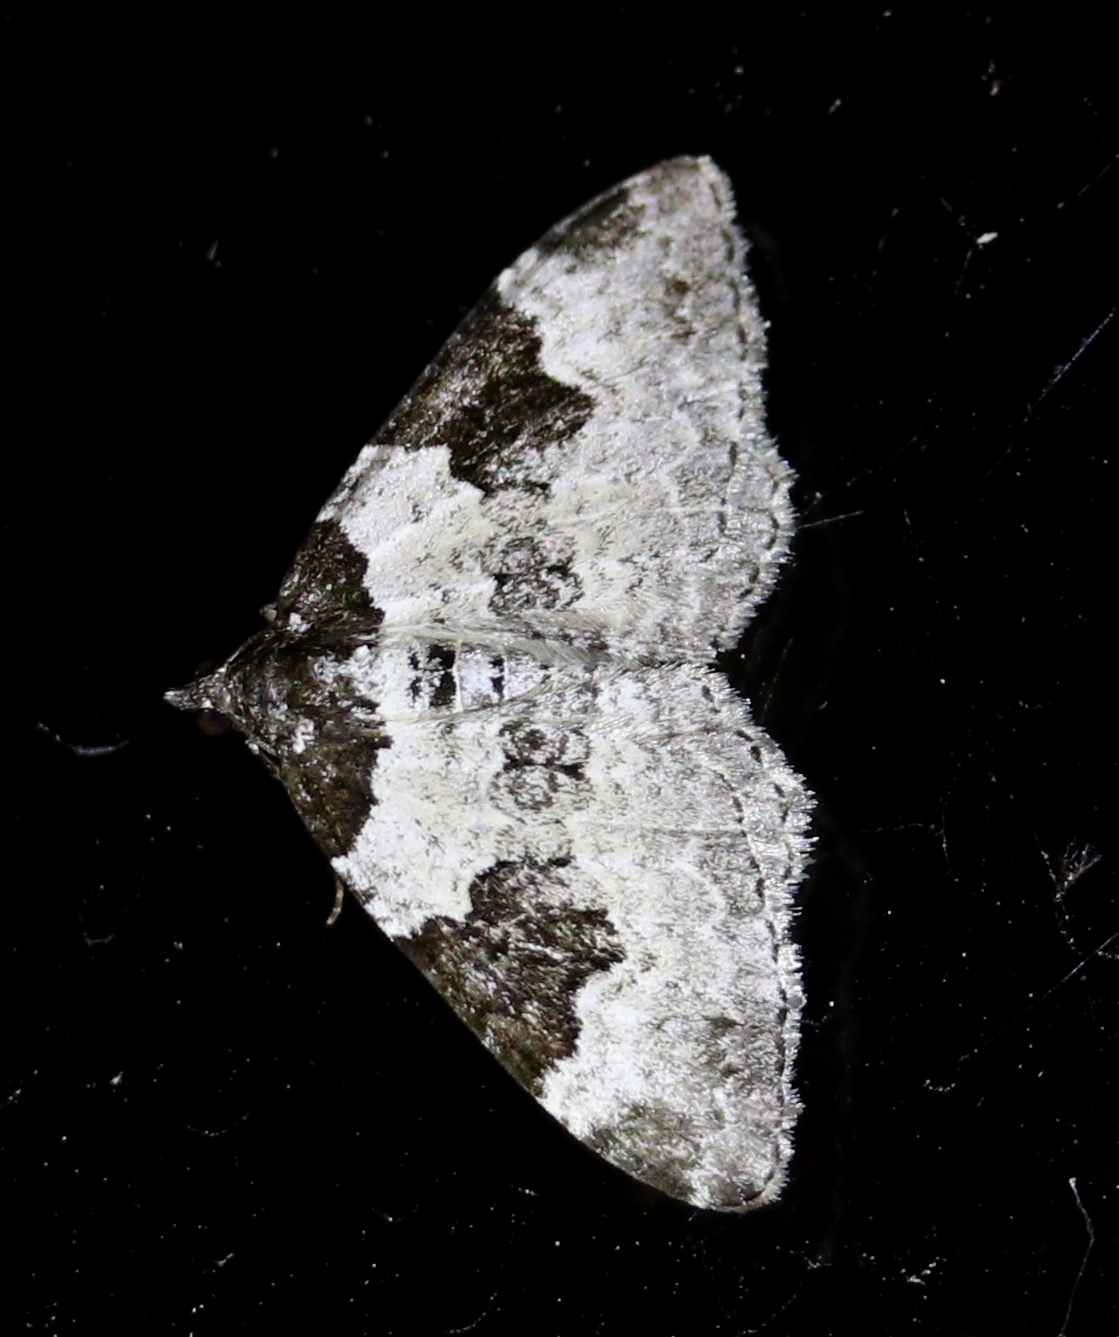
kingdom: Animalia
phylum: Arthropoda
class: Insecta
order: Lepidoptera
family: Geometridae
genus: Xanthorhoe
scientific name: Xanthorhoe fluctuata
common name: Garden carpet
